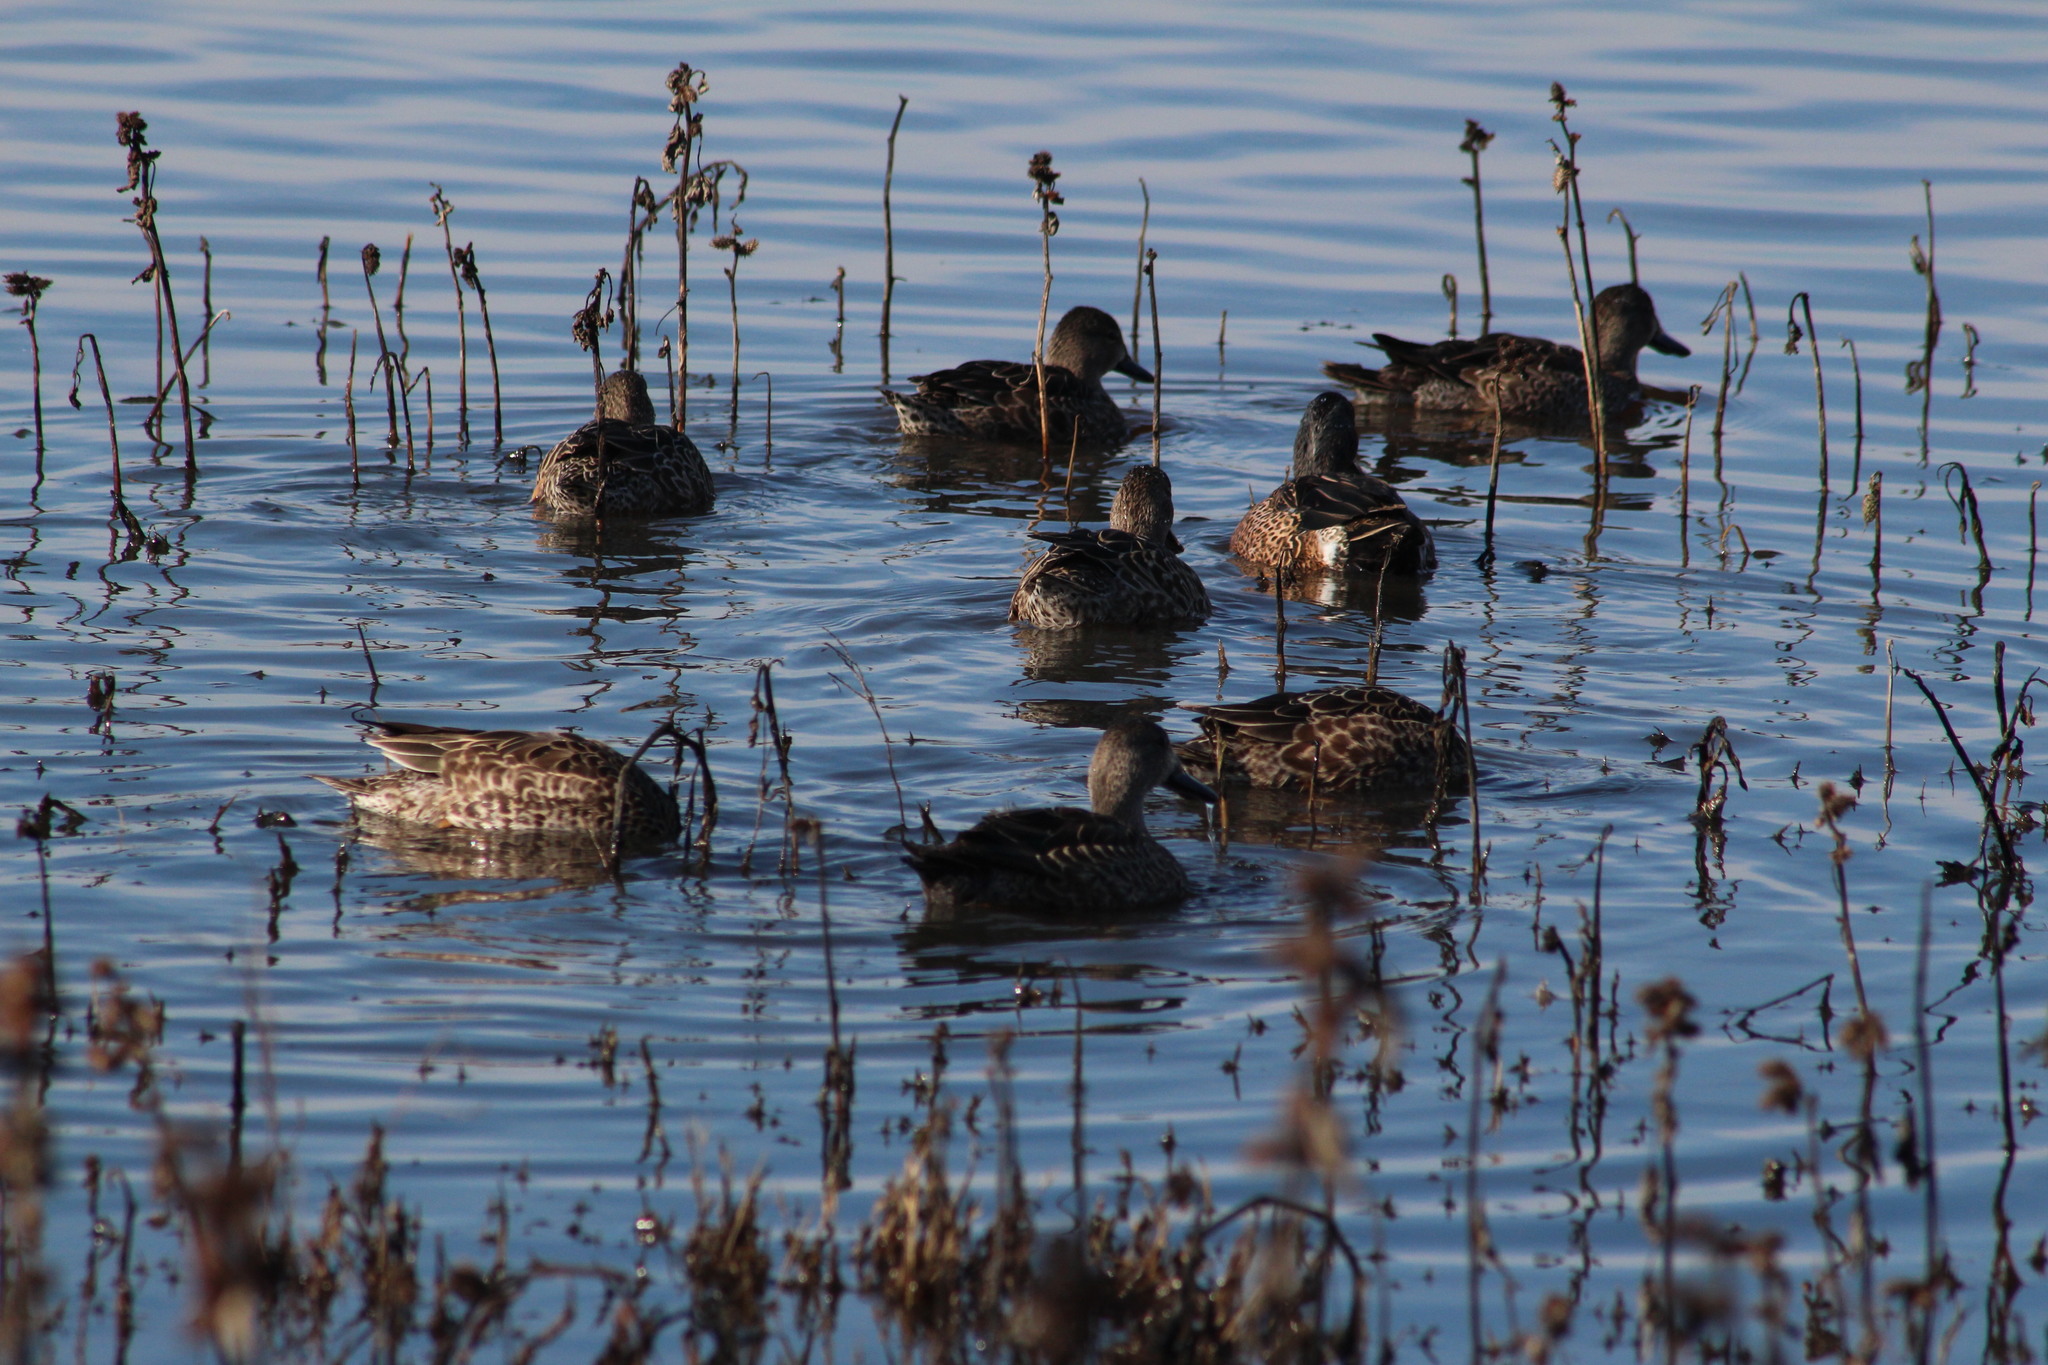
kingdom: Animalia
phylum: Chordata
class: Aves
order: Anseriformes
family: Anatidae
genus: Spatula
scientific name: Spatula discors
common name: Blue-winged teal
